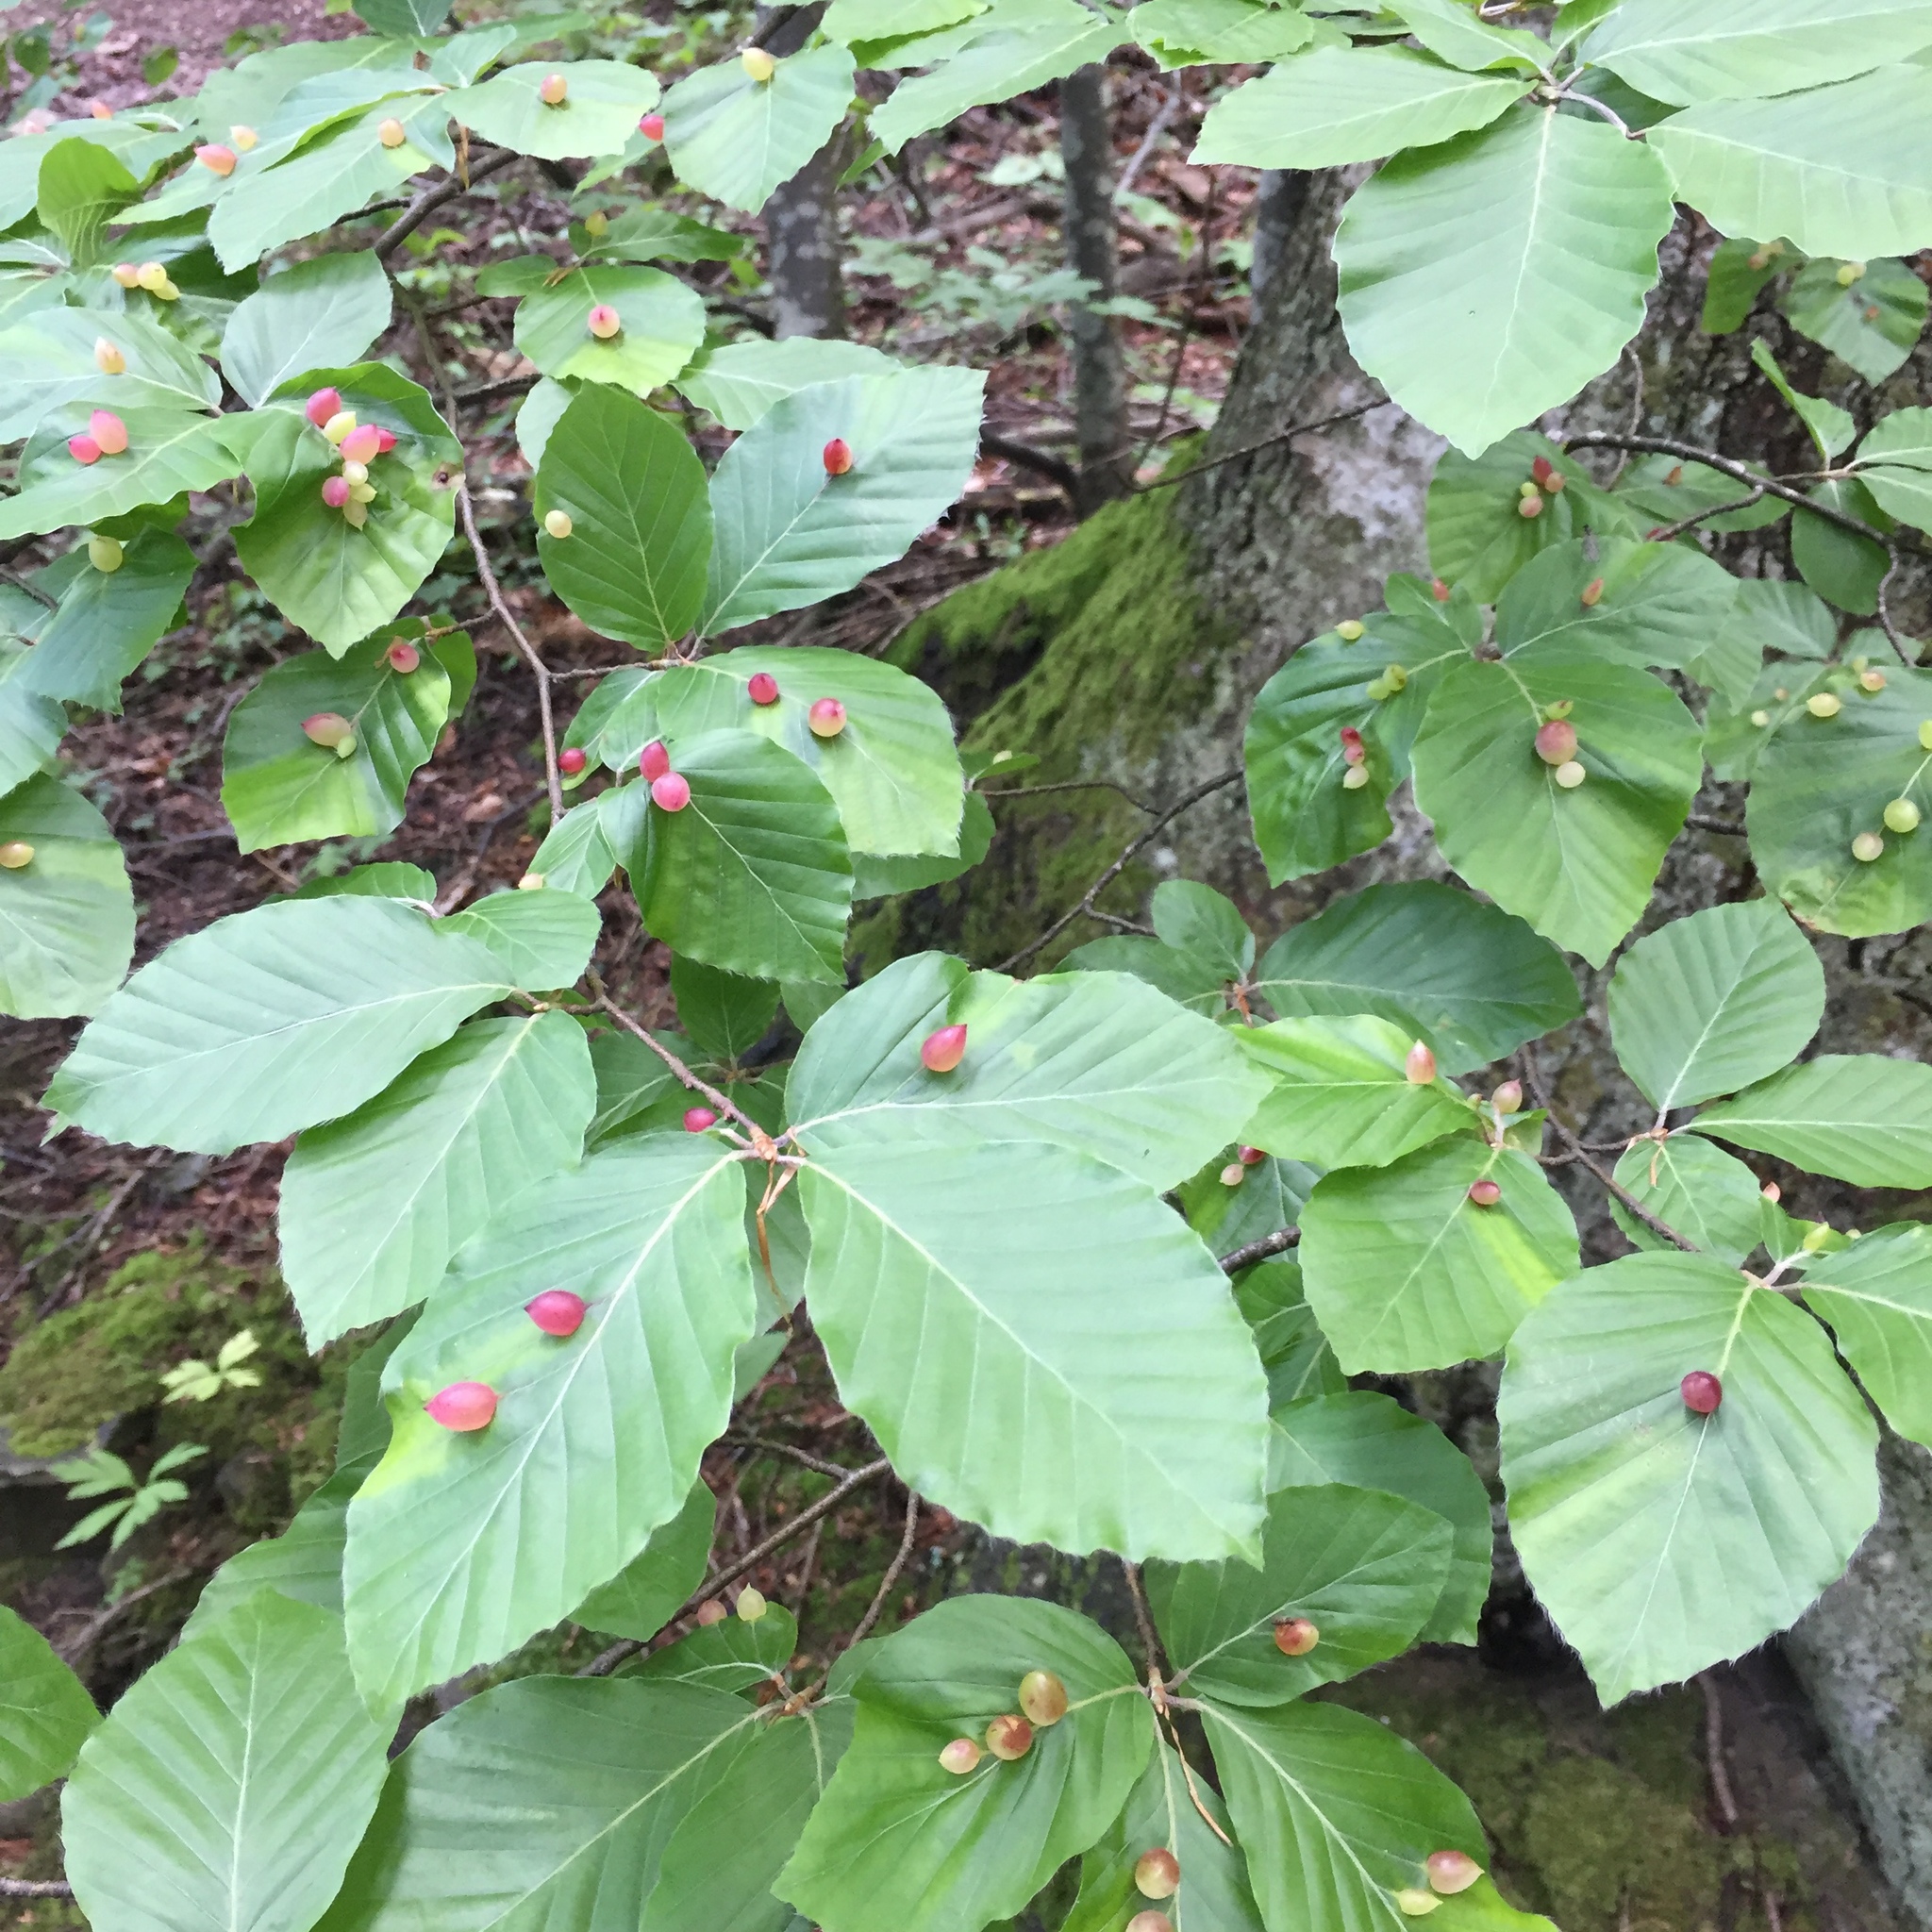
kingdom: Animalia
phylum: Arthropoda
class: Insecta
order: Diptera
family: Cecidomyiidae
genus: Mikiola
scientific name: Mikiola fagi
